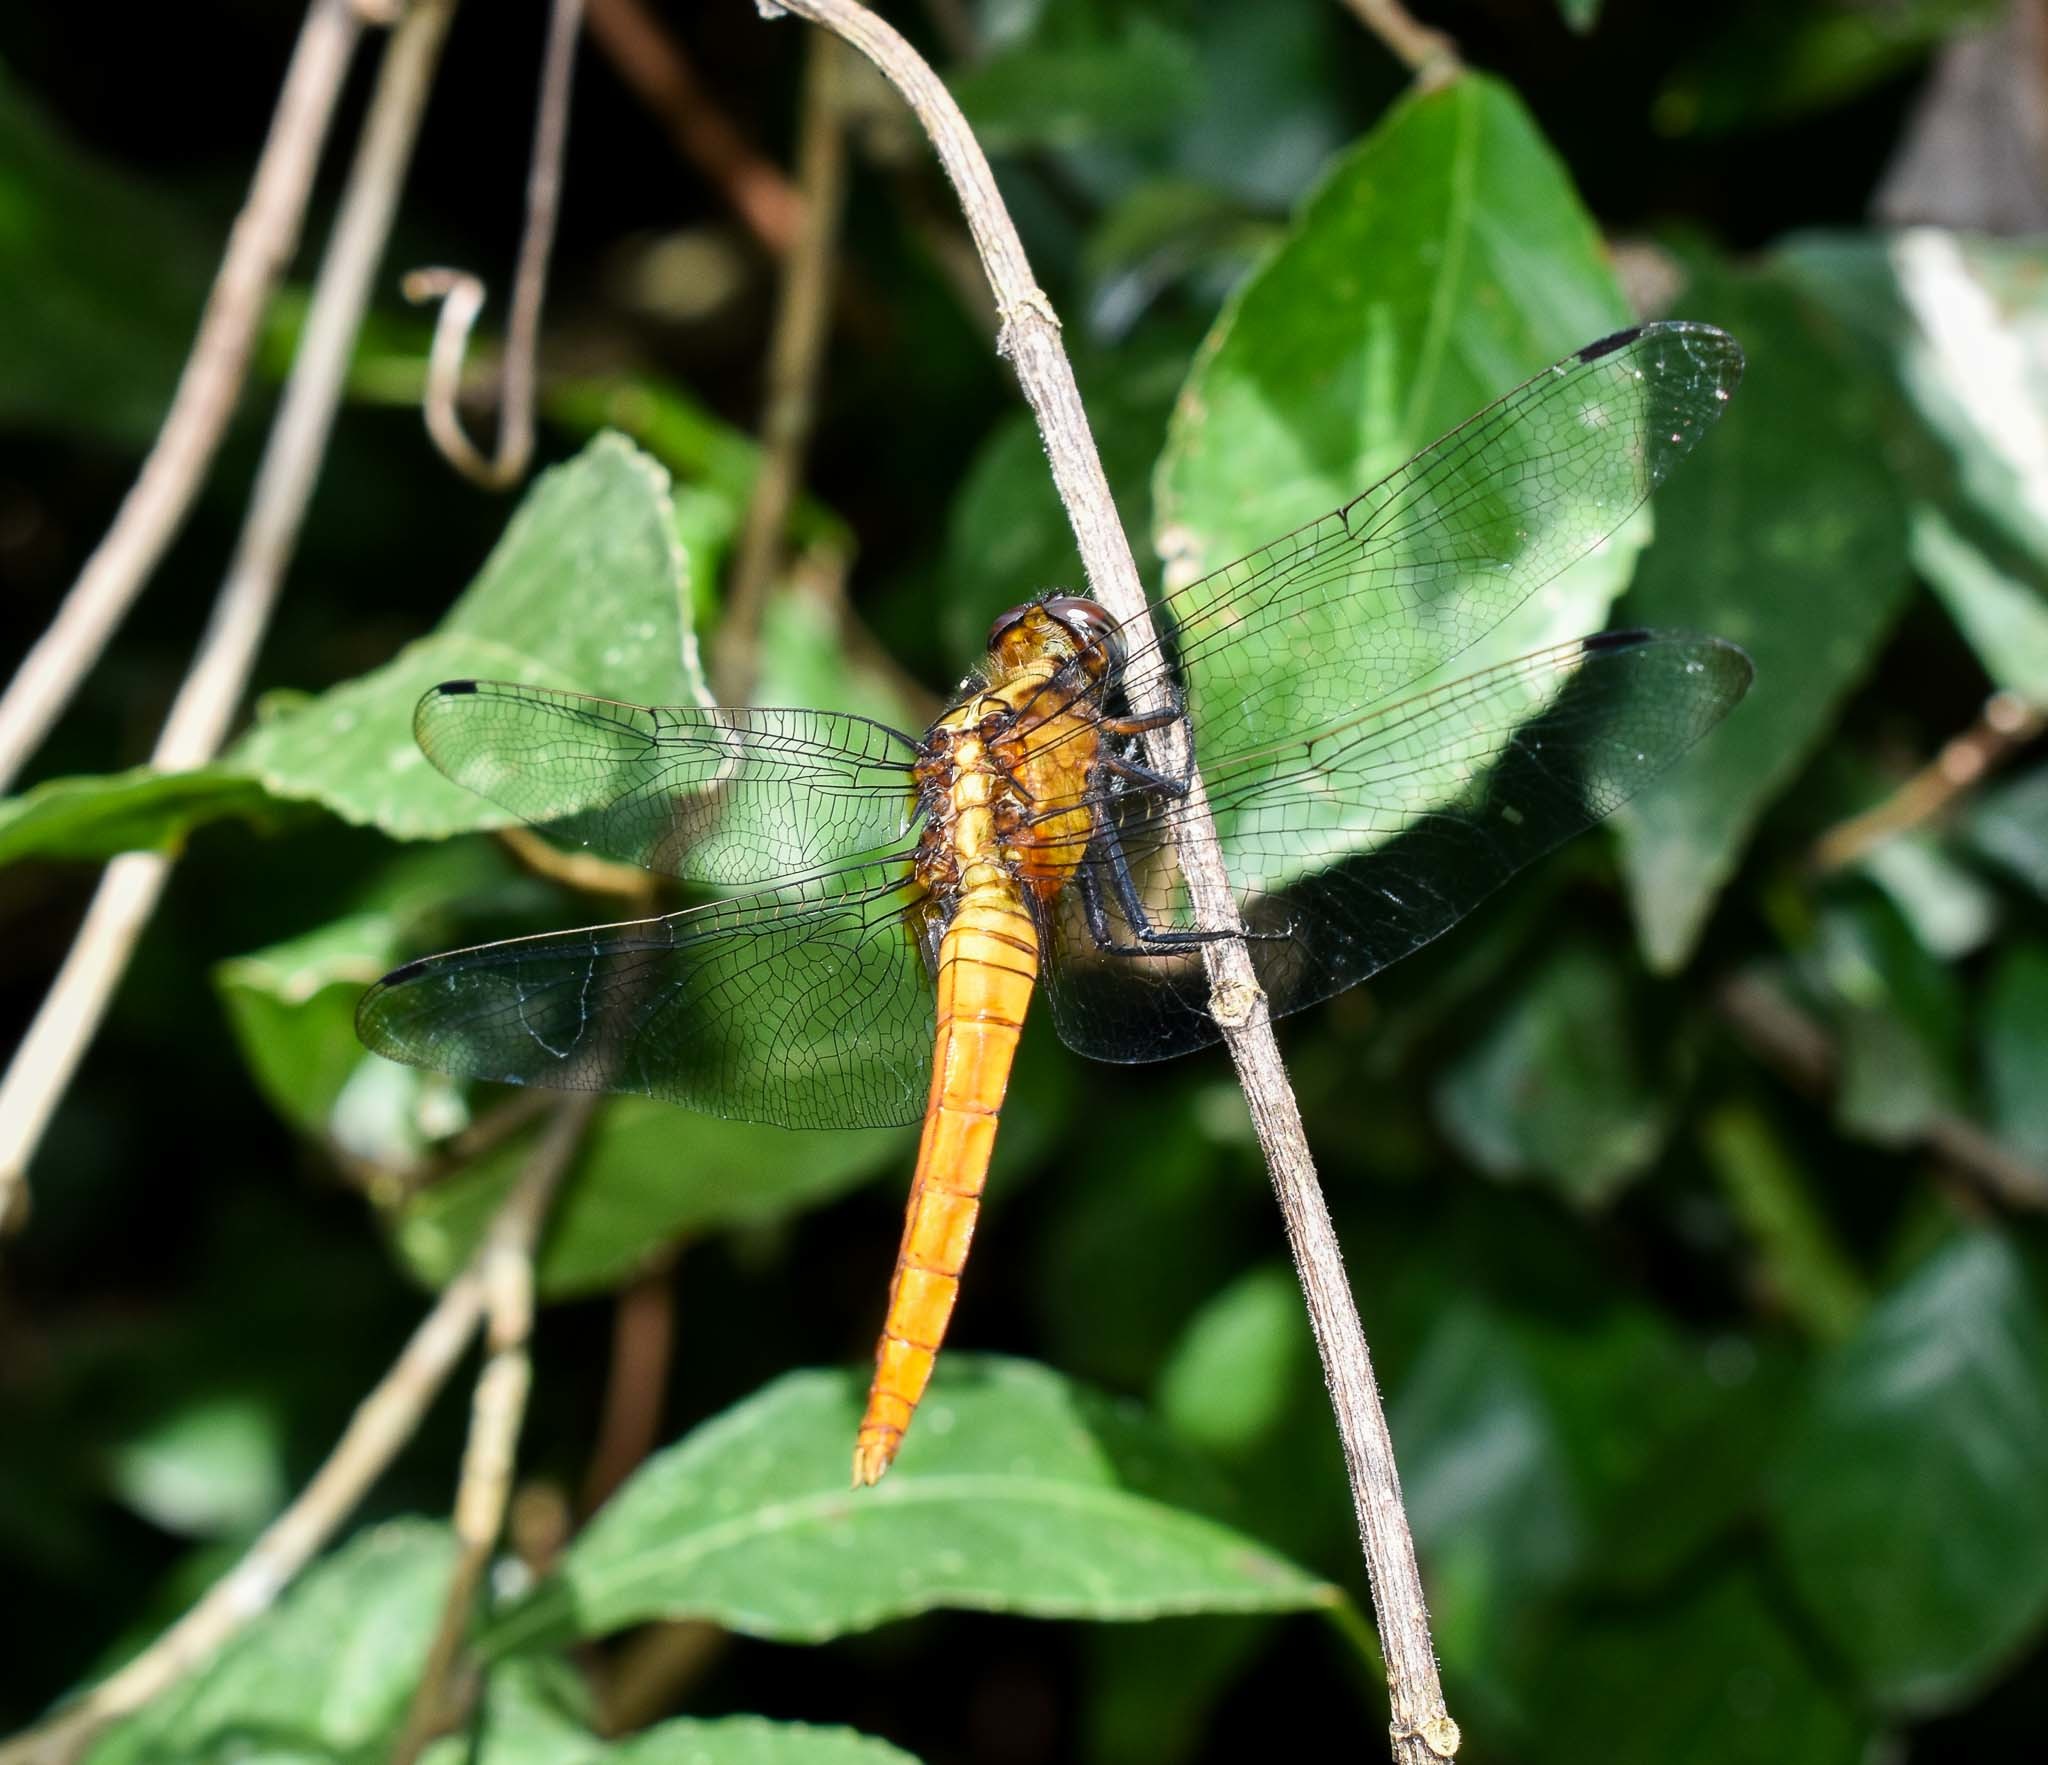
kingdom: Animalia
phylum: Arthropoda
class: Insecta
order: Odonata
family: Libellulidae
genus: Orthetrum
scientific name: Orthetrum pruinosum
